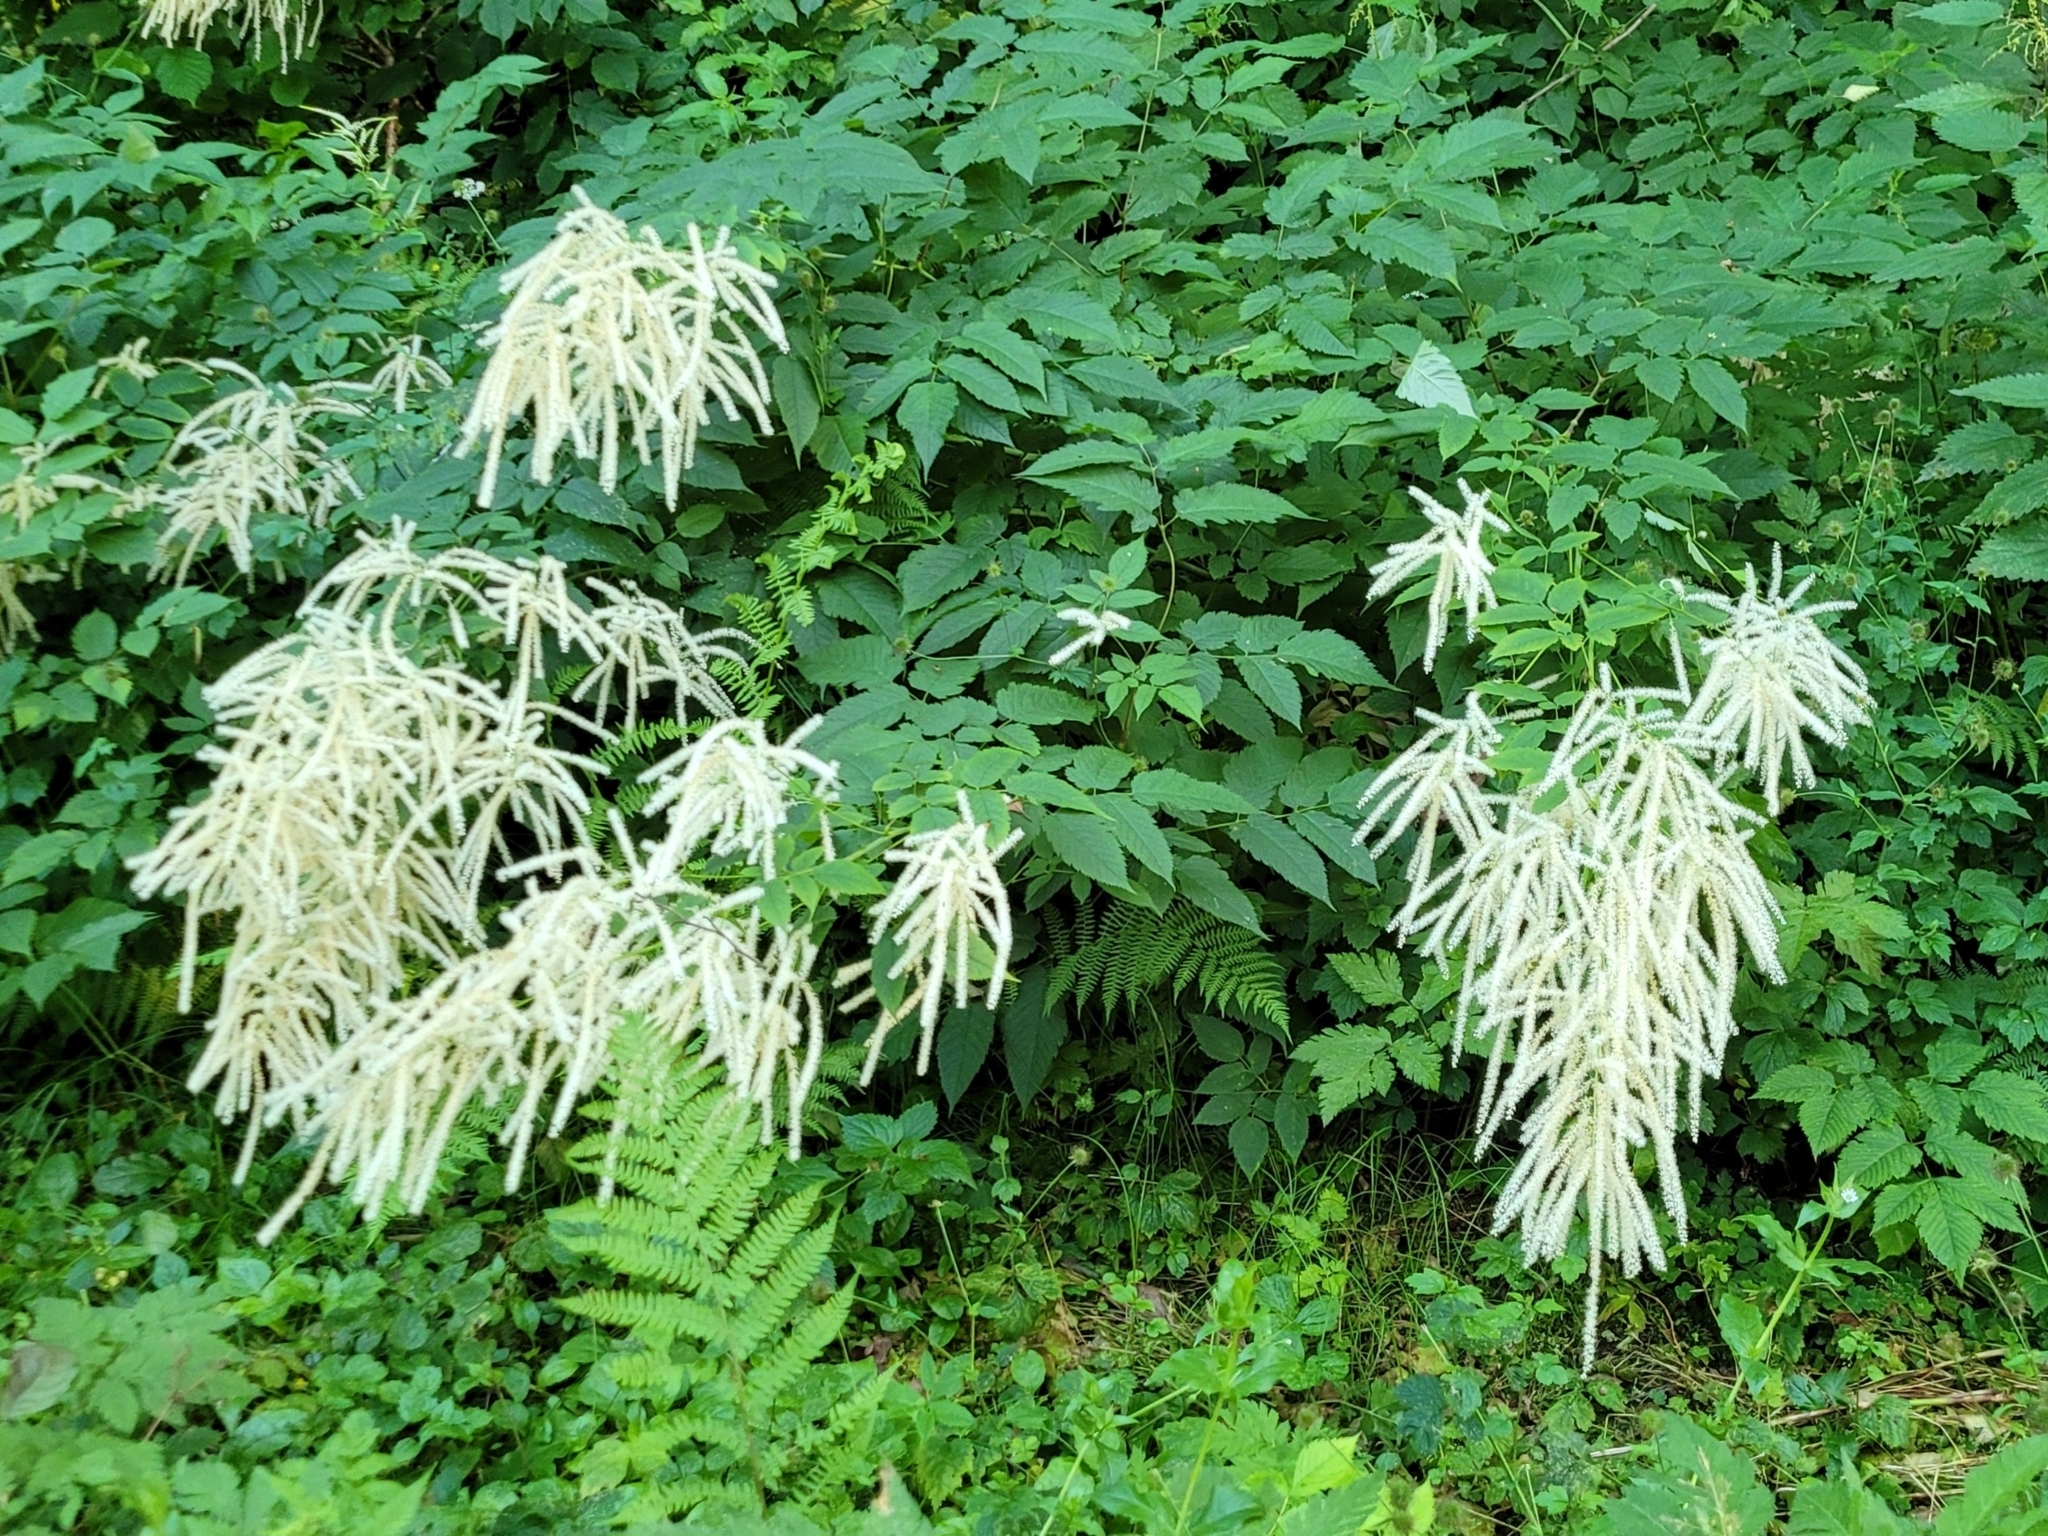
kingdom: Plantae
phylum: Tracheophyta
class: Magnoliopsida
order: Rosales
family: Rosaceae
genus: Aruncus
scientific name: Aruncus dioicus
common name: Buck's-beard
